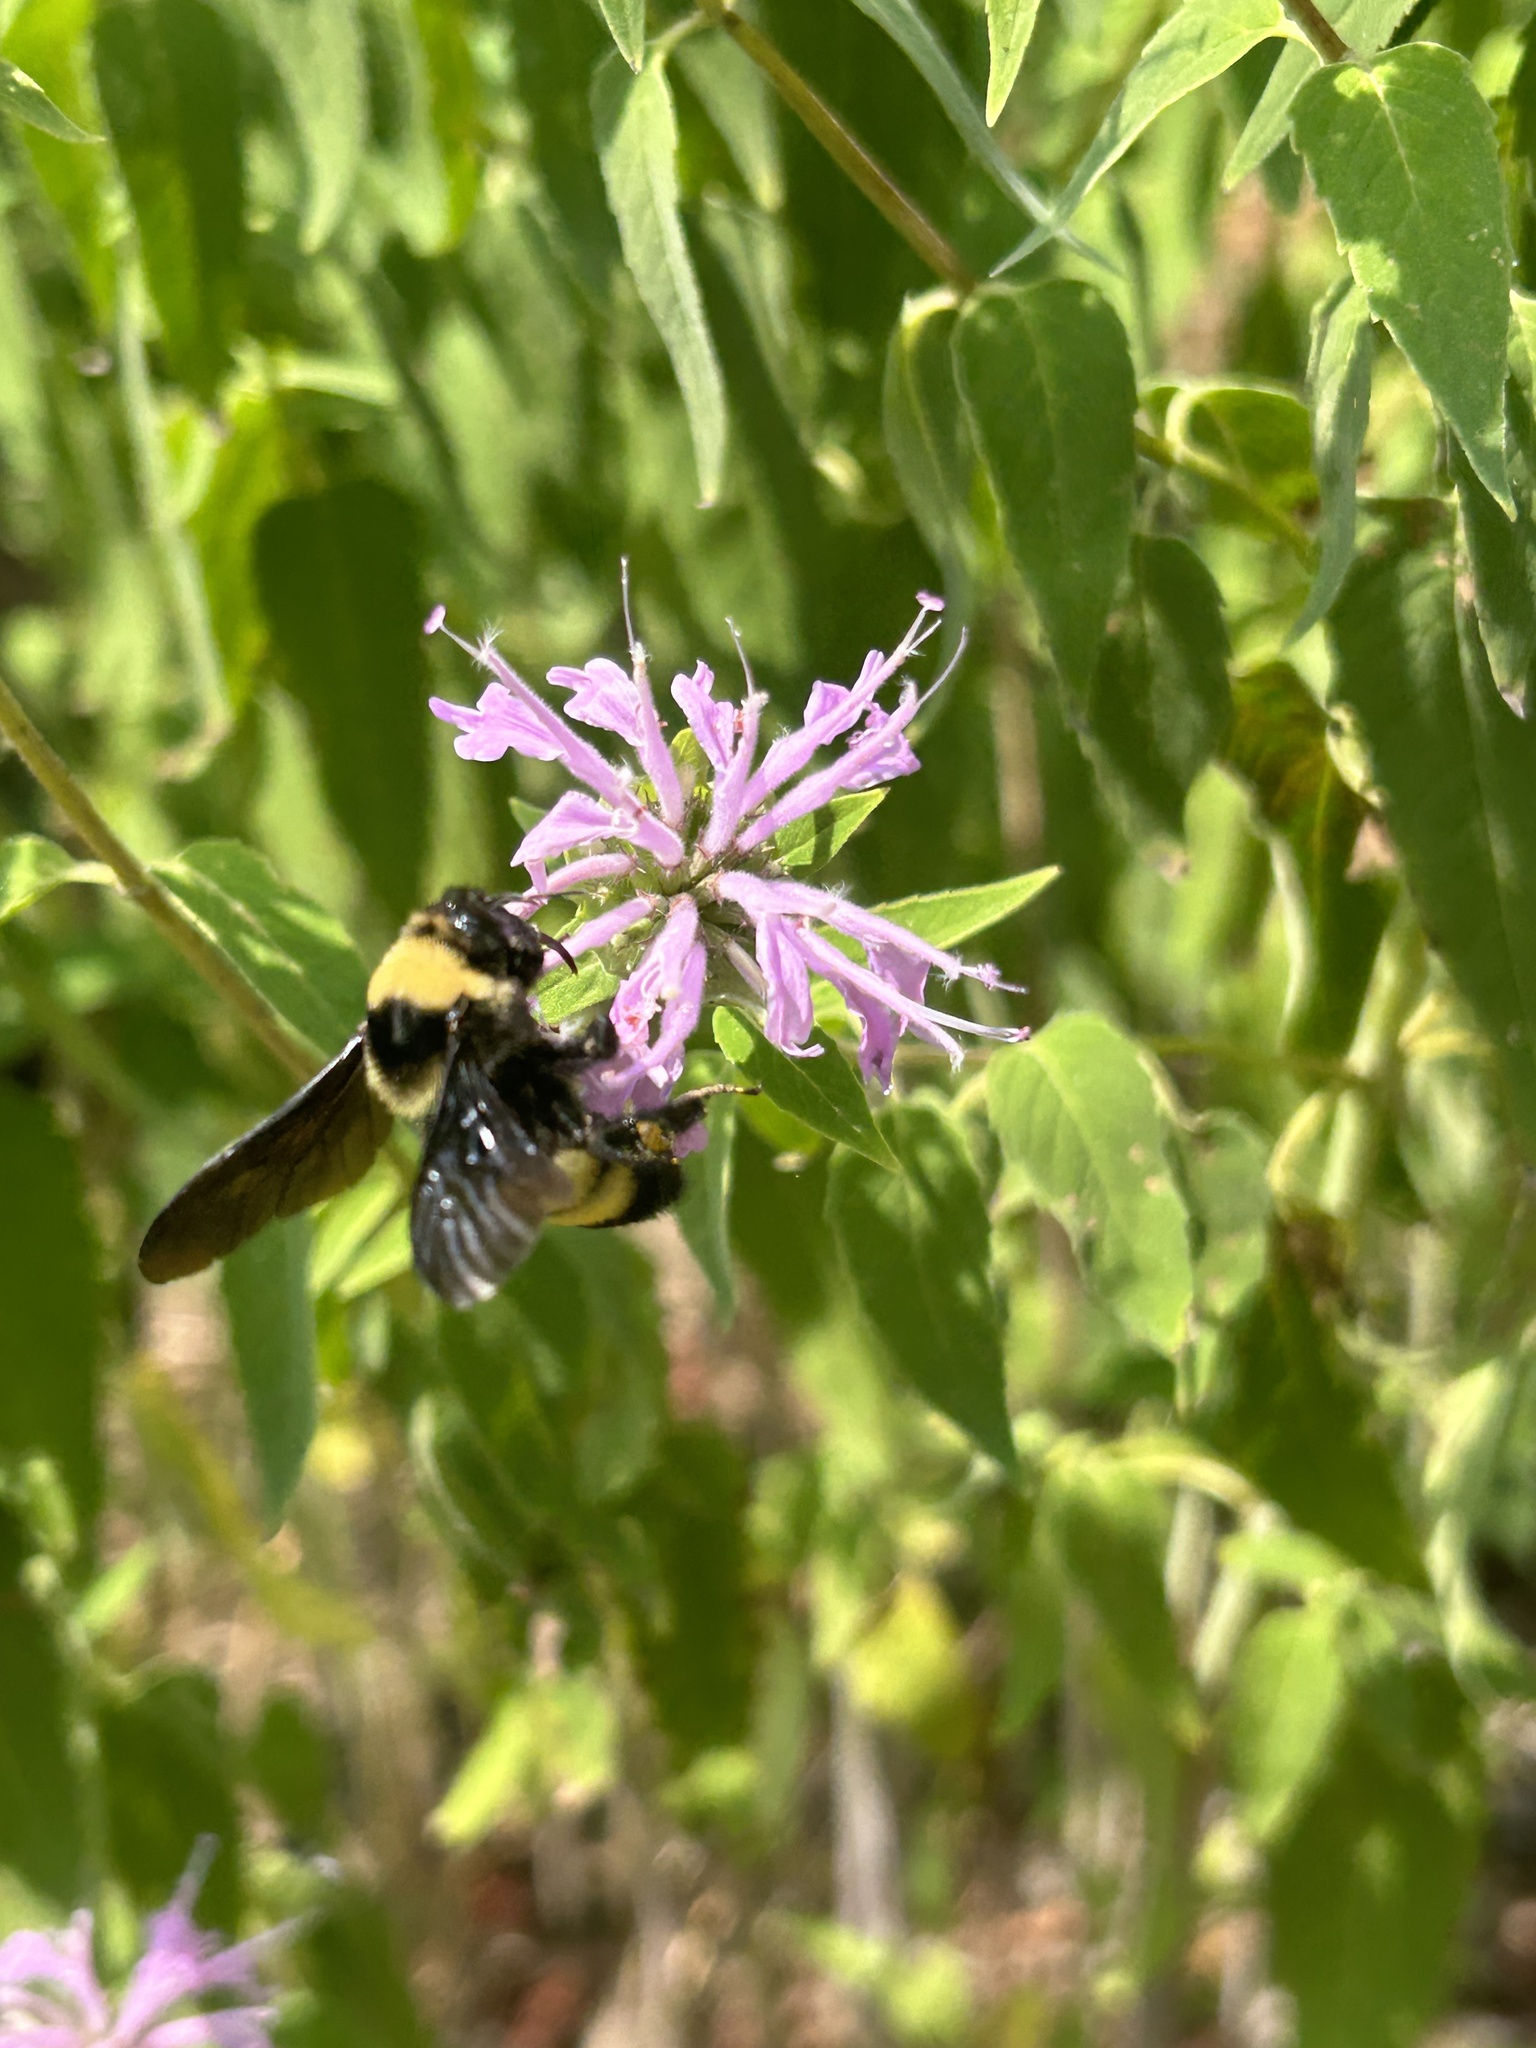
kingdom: Animalia
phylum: Arthropoda
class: Insecta
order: Hymenoptera
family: Apidae
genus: Bombus
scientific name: Bombus auricomus
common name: Black and gold bumble bee
